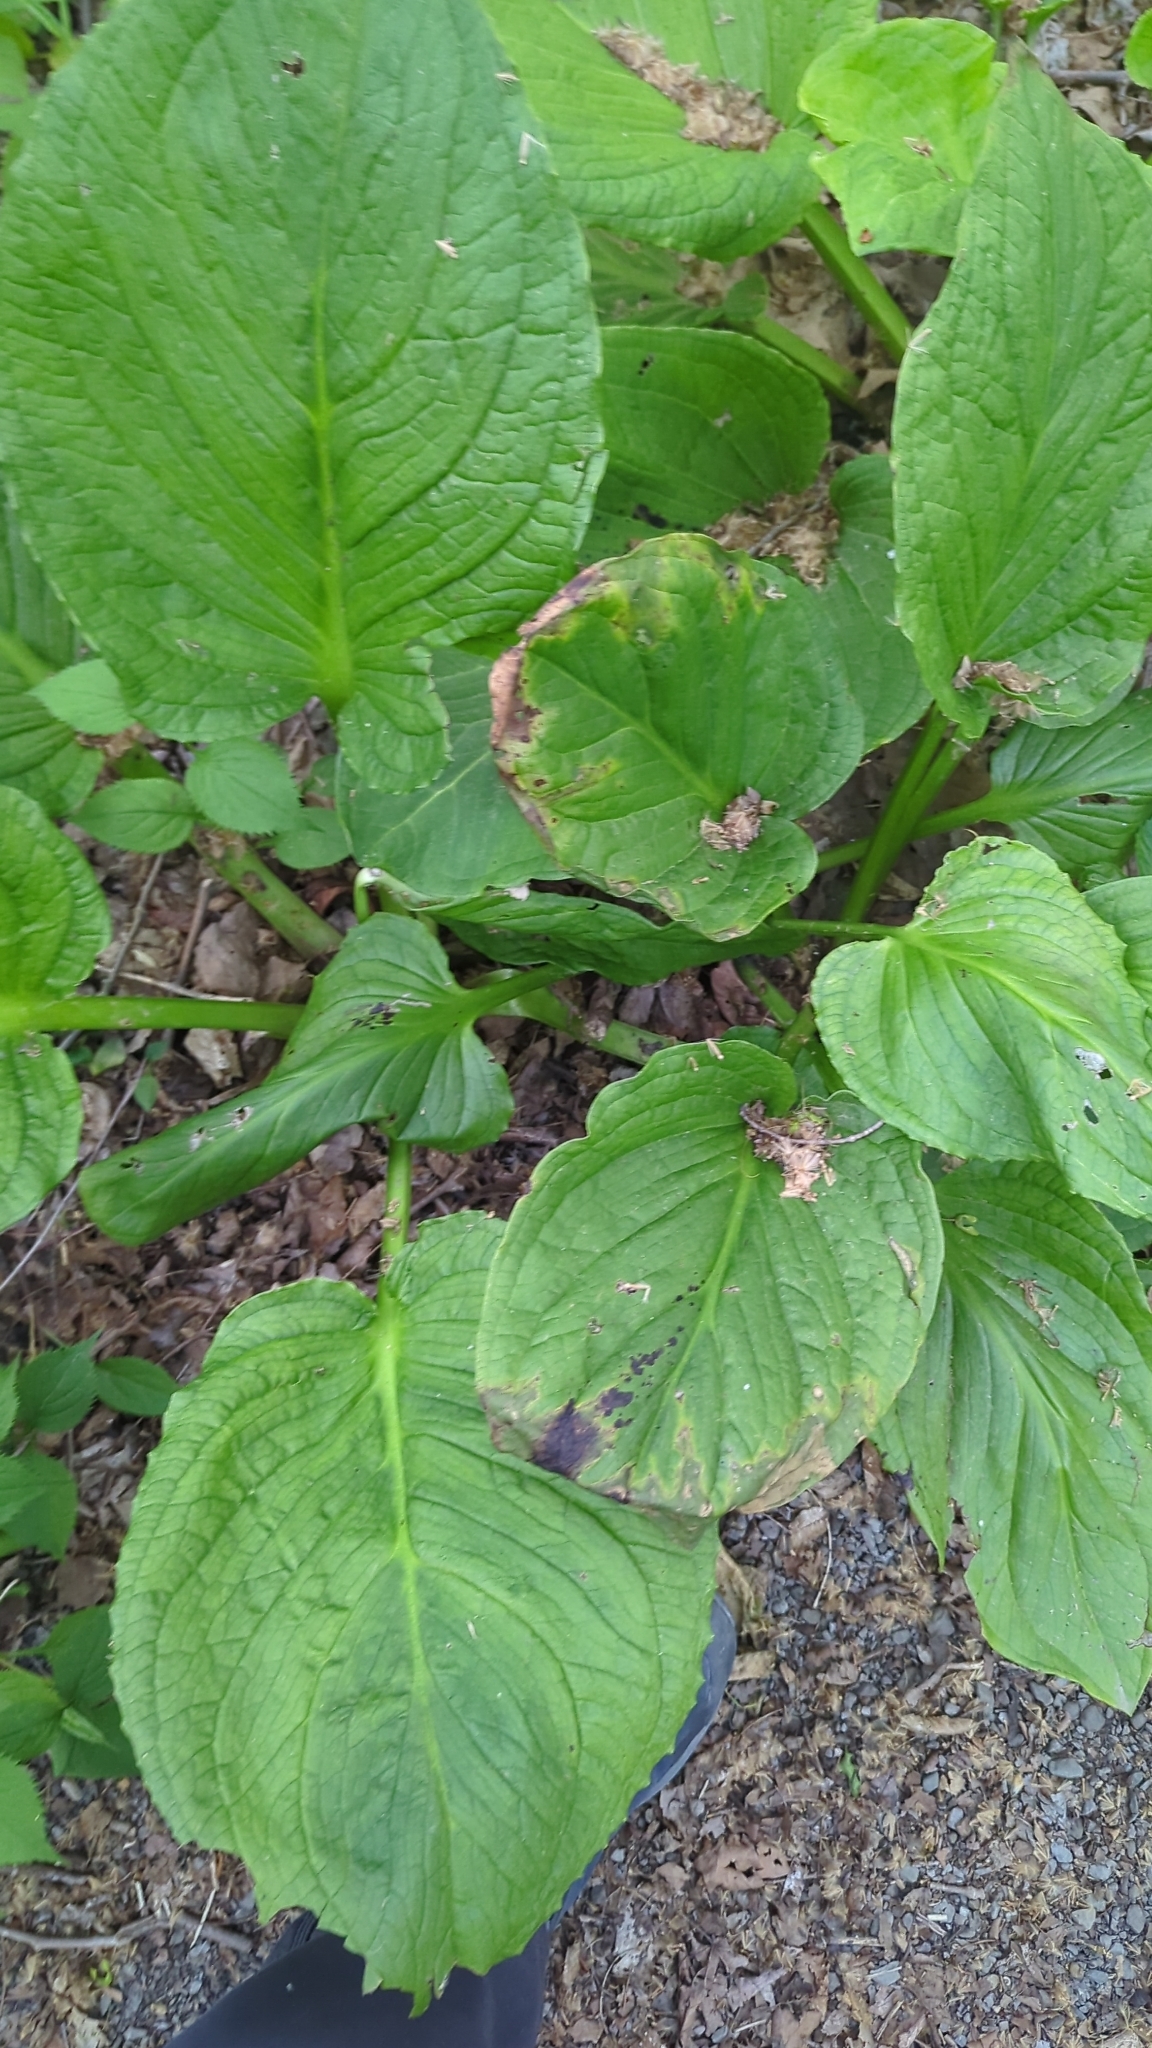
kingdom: Plantae
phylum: Tracheophyta
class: Liliopsida
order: Alismatales
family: Araceae
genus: Symplocarpus
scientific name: Symplocarpus foetidus
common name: Eastern skunk cabbage
